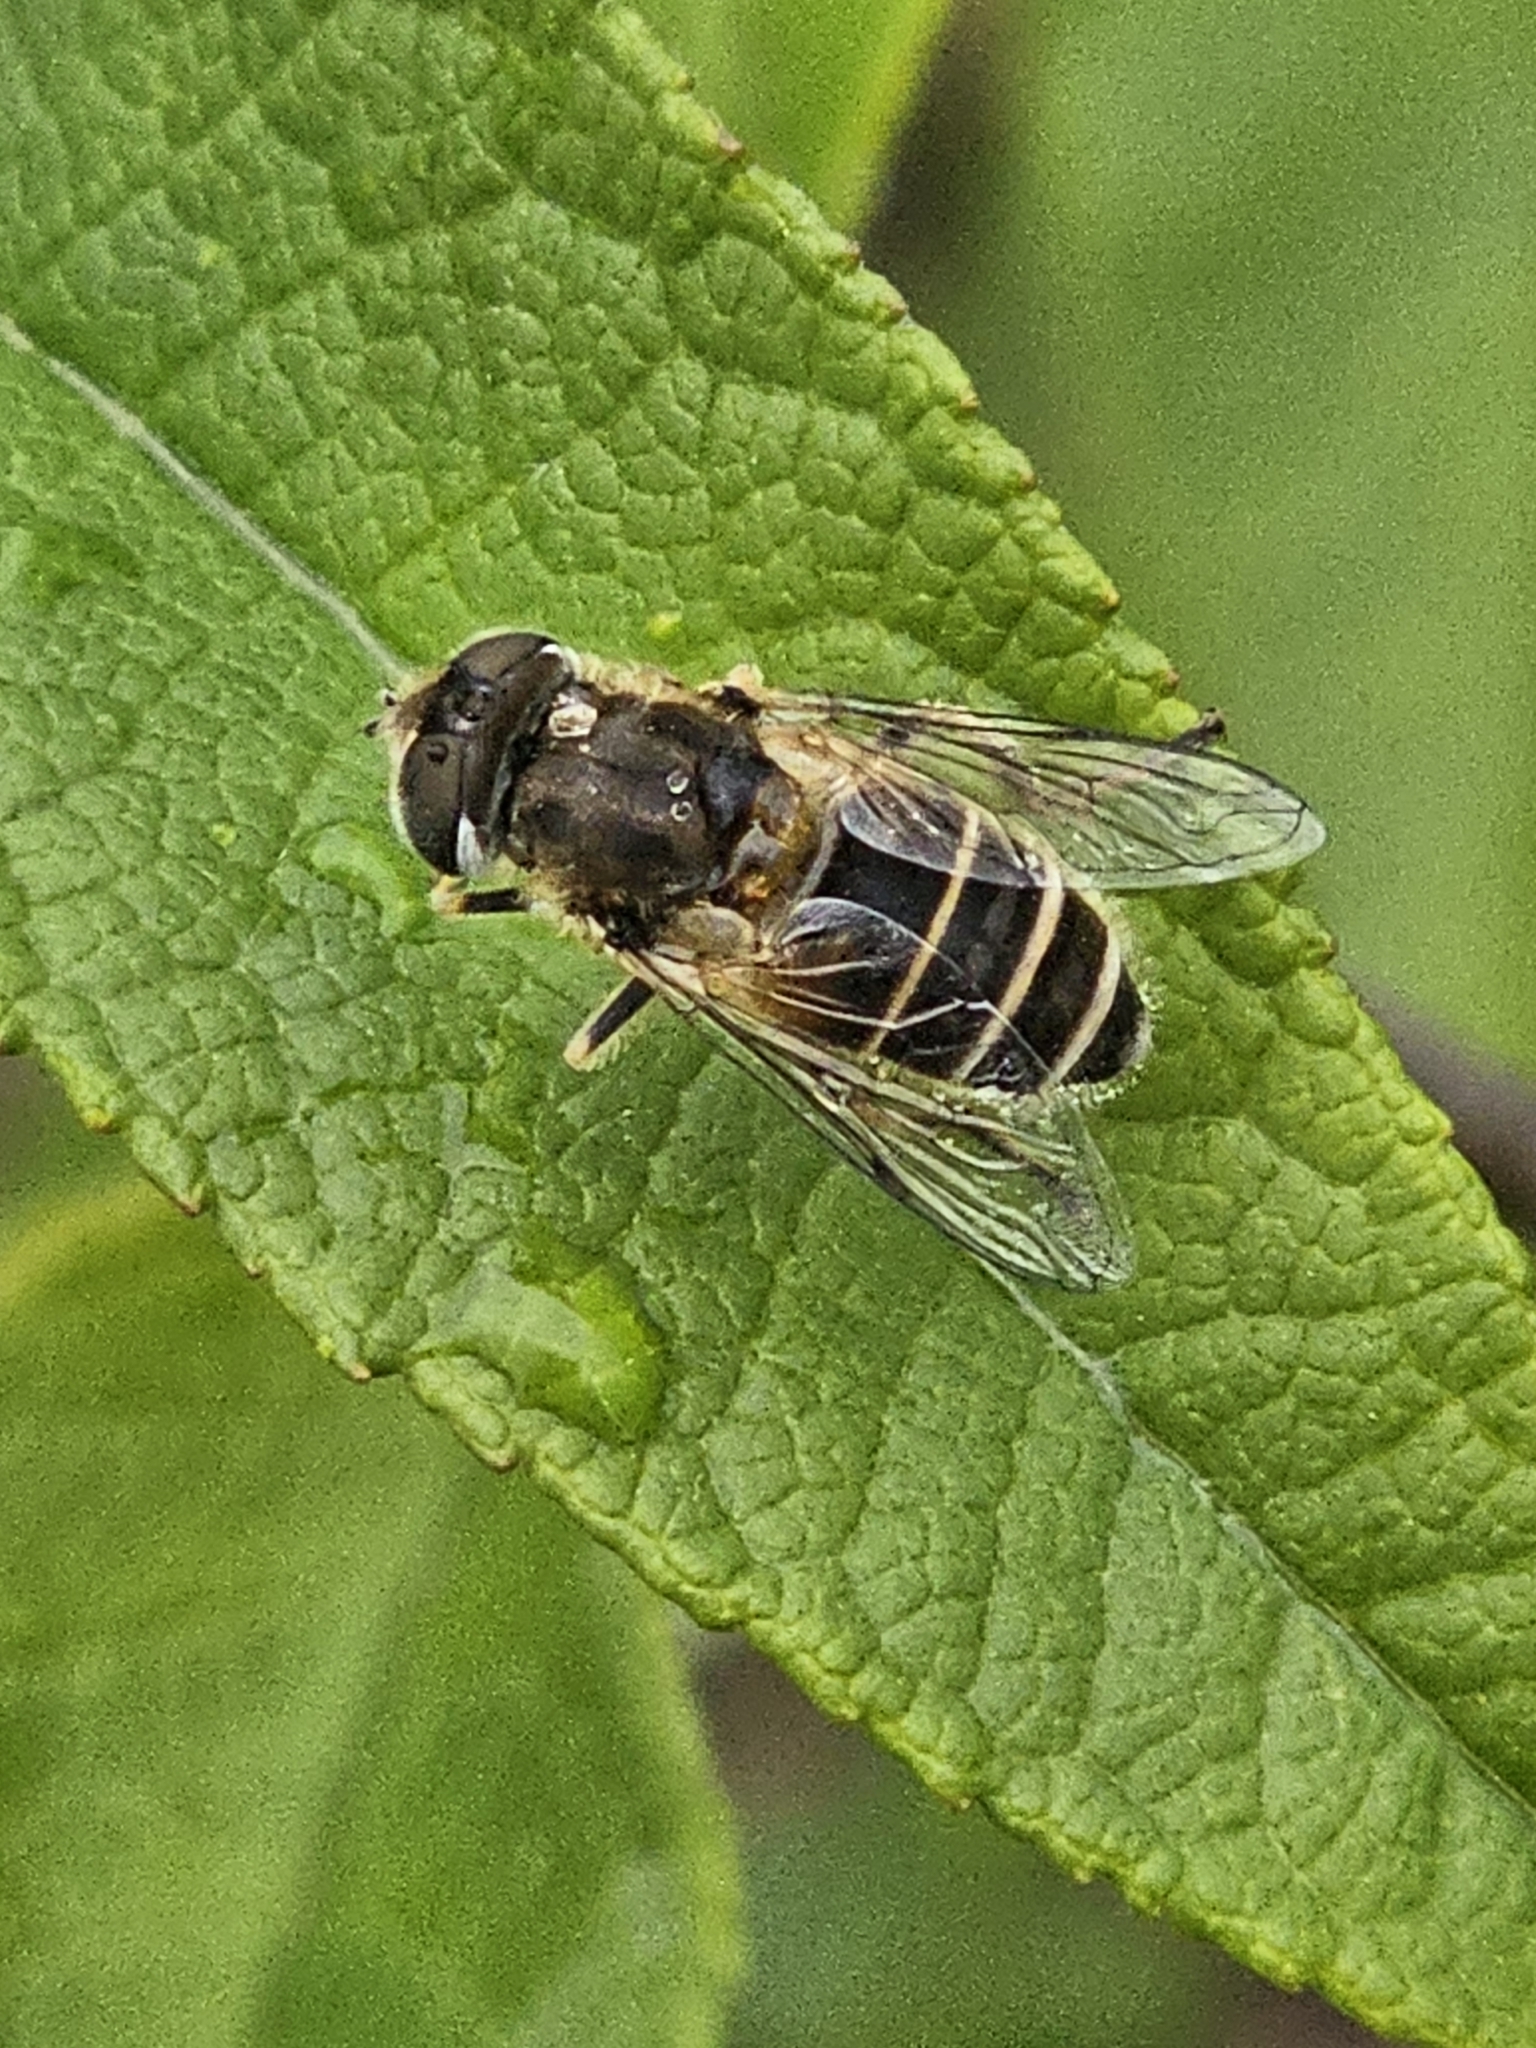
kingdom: Animalia
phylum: Arthropoda
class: Insecta
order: Diptera
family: Syrphidae
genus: Eristalis
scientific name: Eristalis arbustorum
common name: Hover fly
